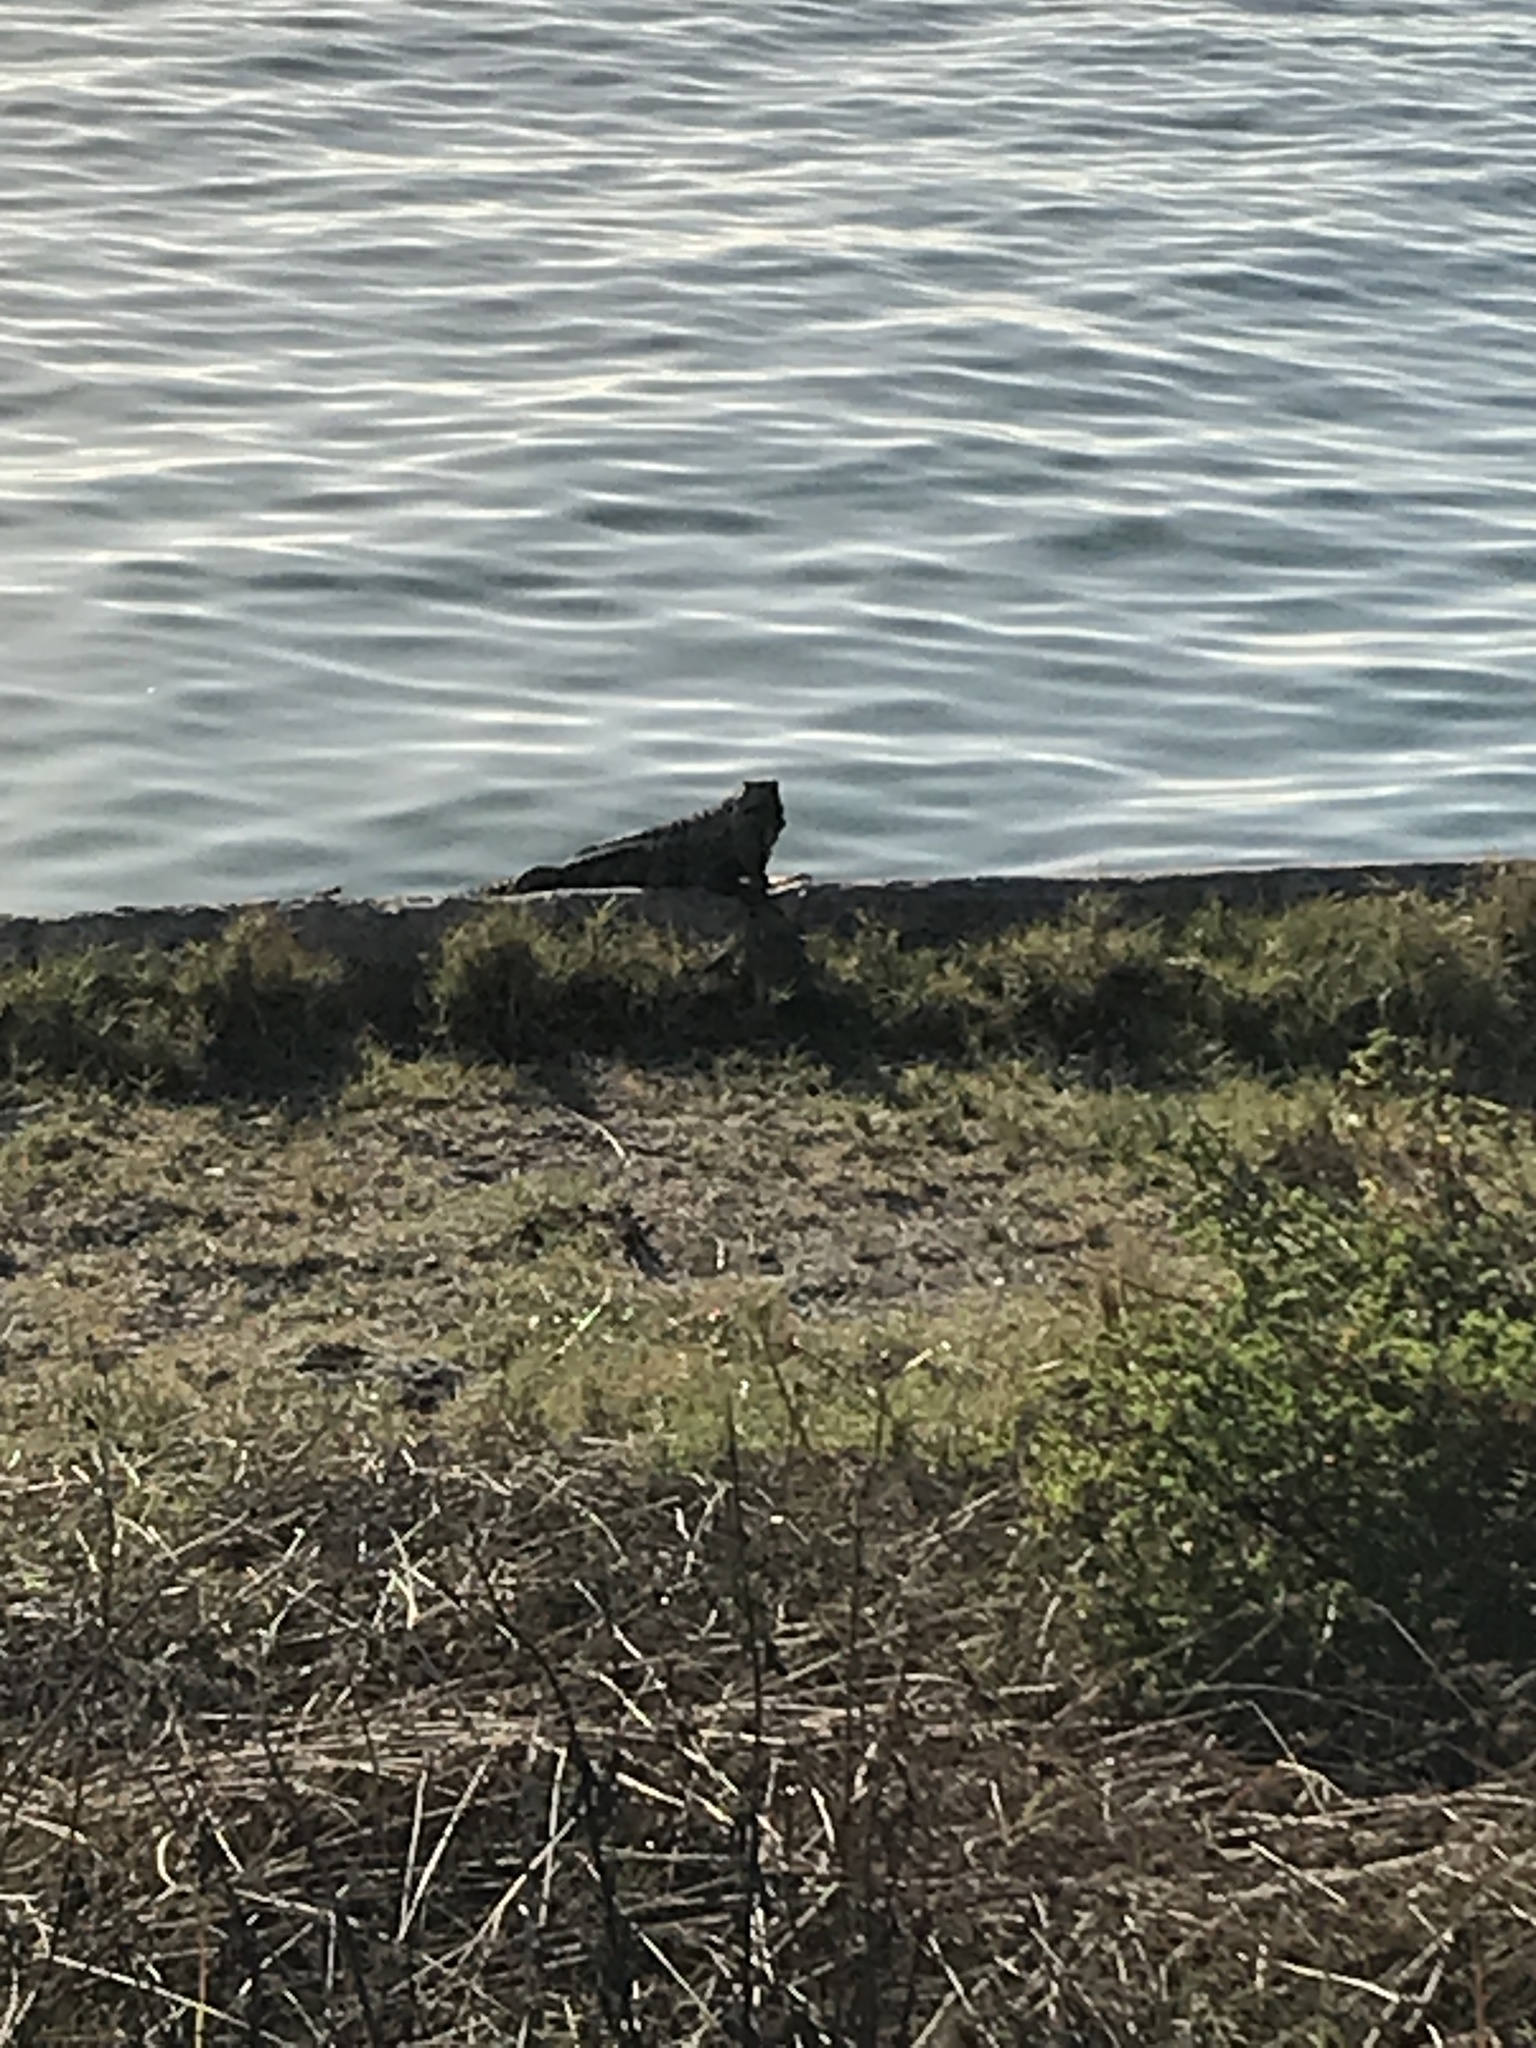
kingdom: Animalia
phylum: Chordata
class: Squamata
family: Iguanidae
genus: Iguana
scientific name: Iguana iguana
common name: Green iguana
